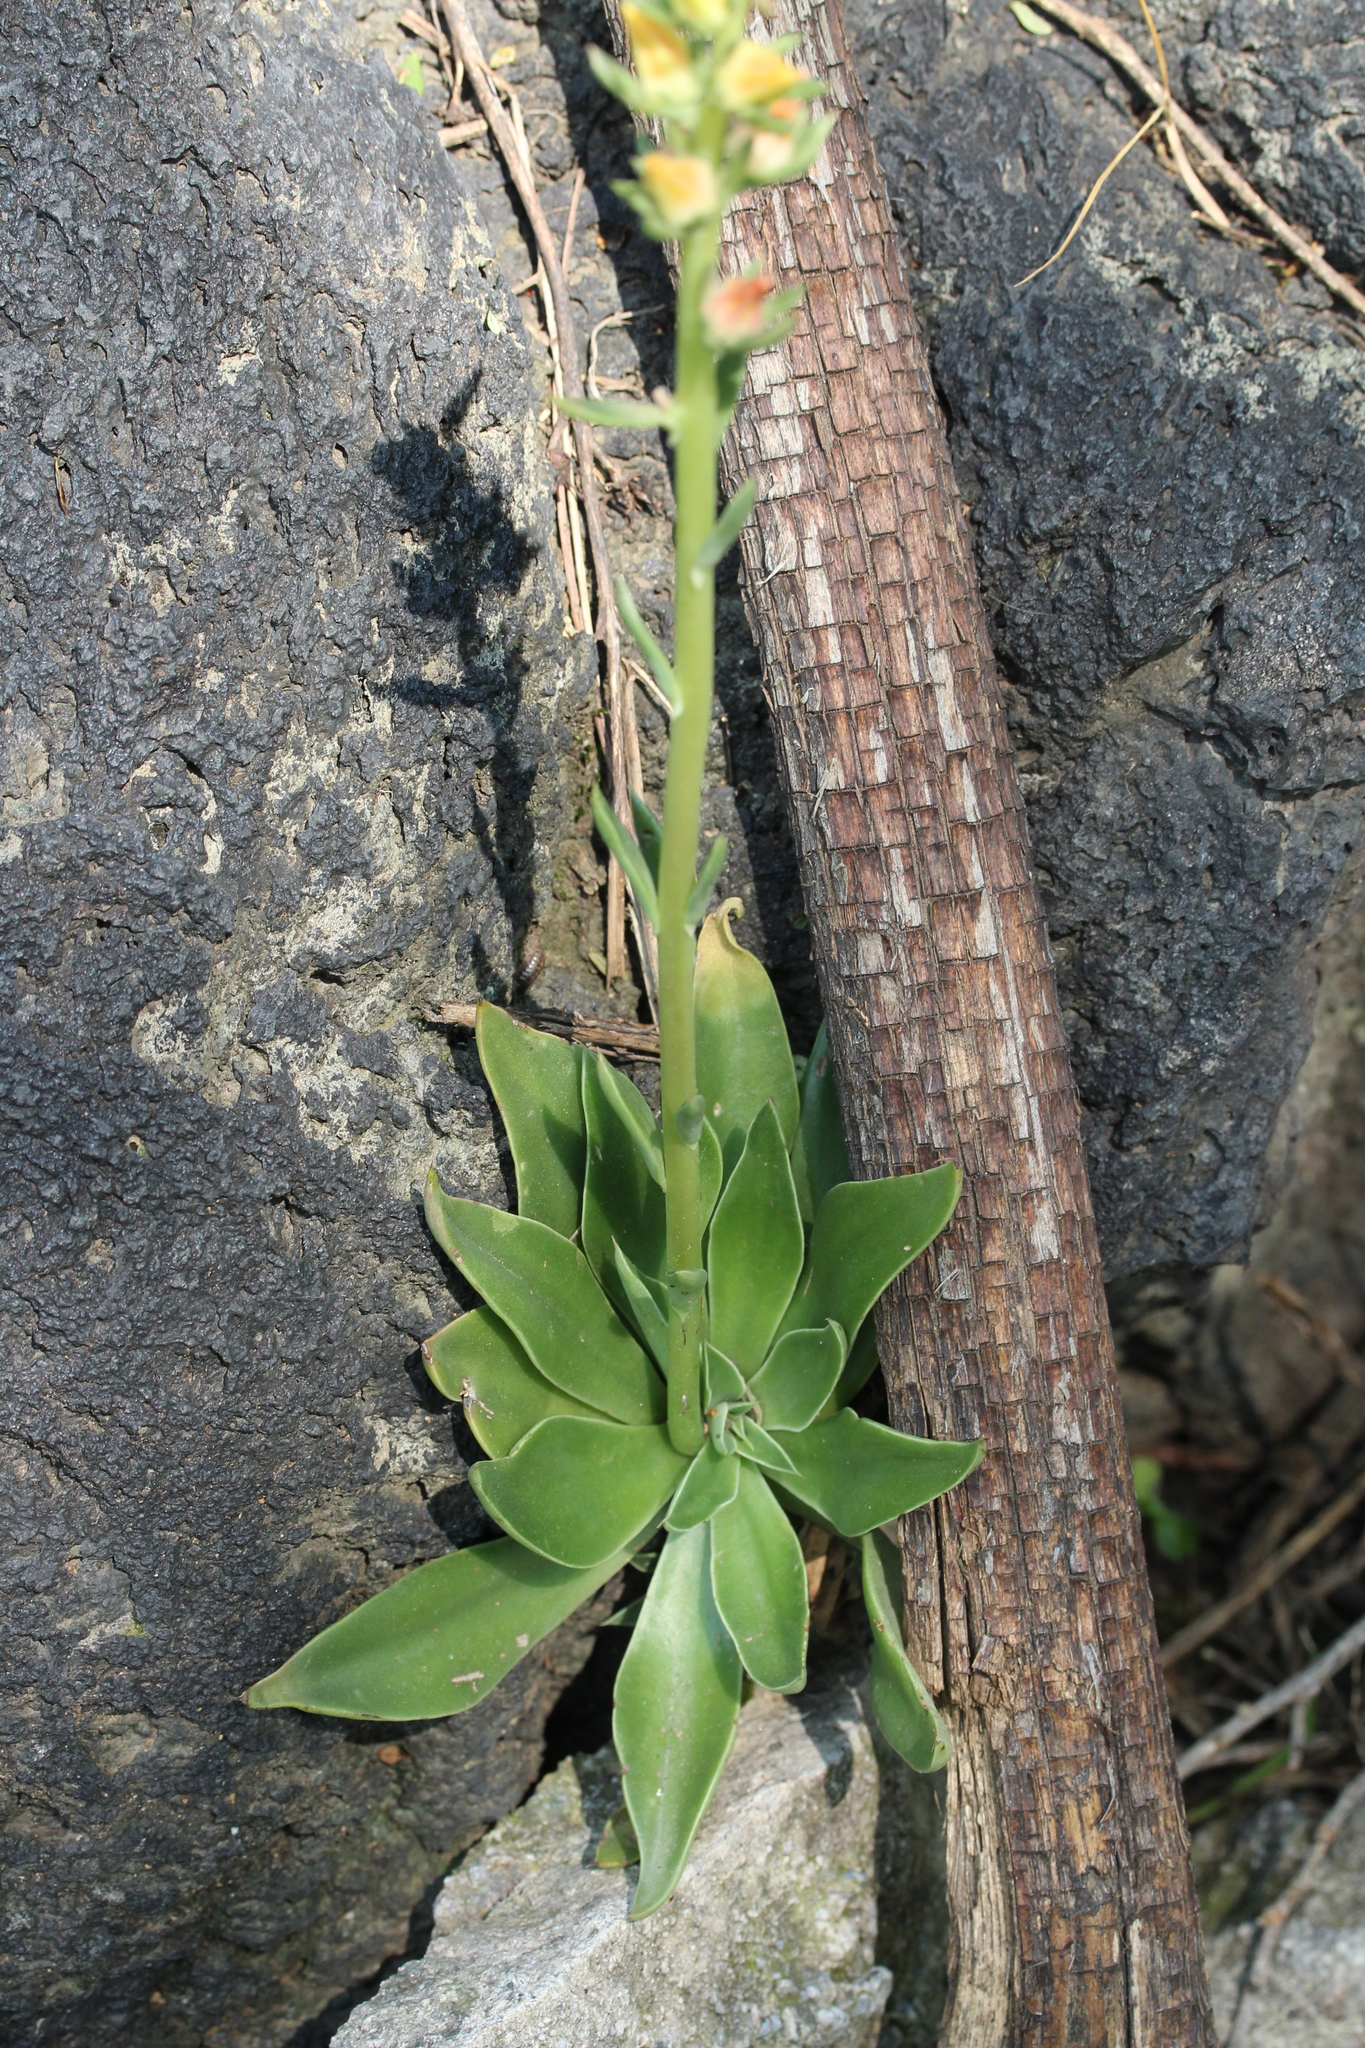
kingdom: Plantae
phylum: Tracheophyta
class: Magnoliopsida
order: Saxifragales
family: Crassulaceae
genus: Echeveria
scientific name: Echeveria mucronata
